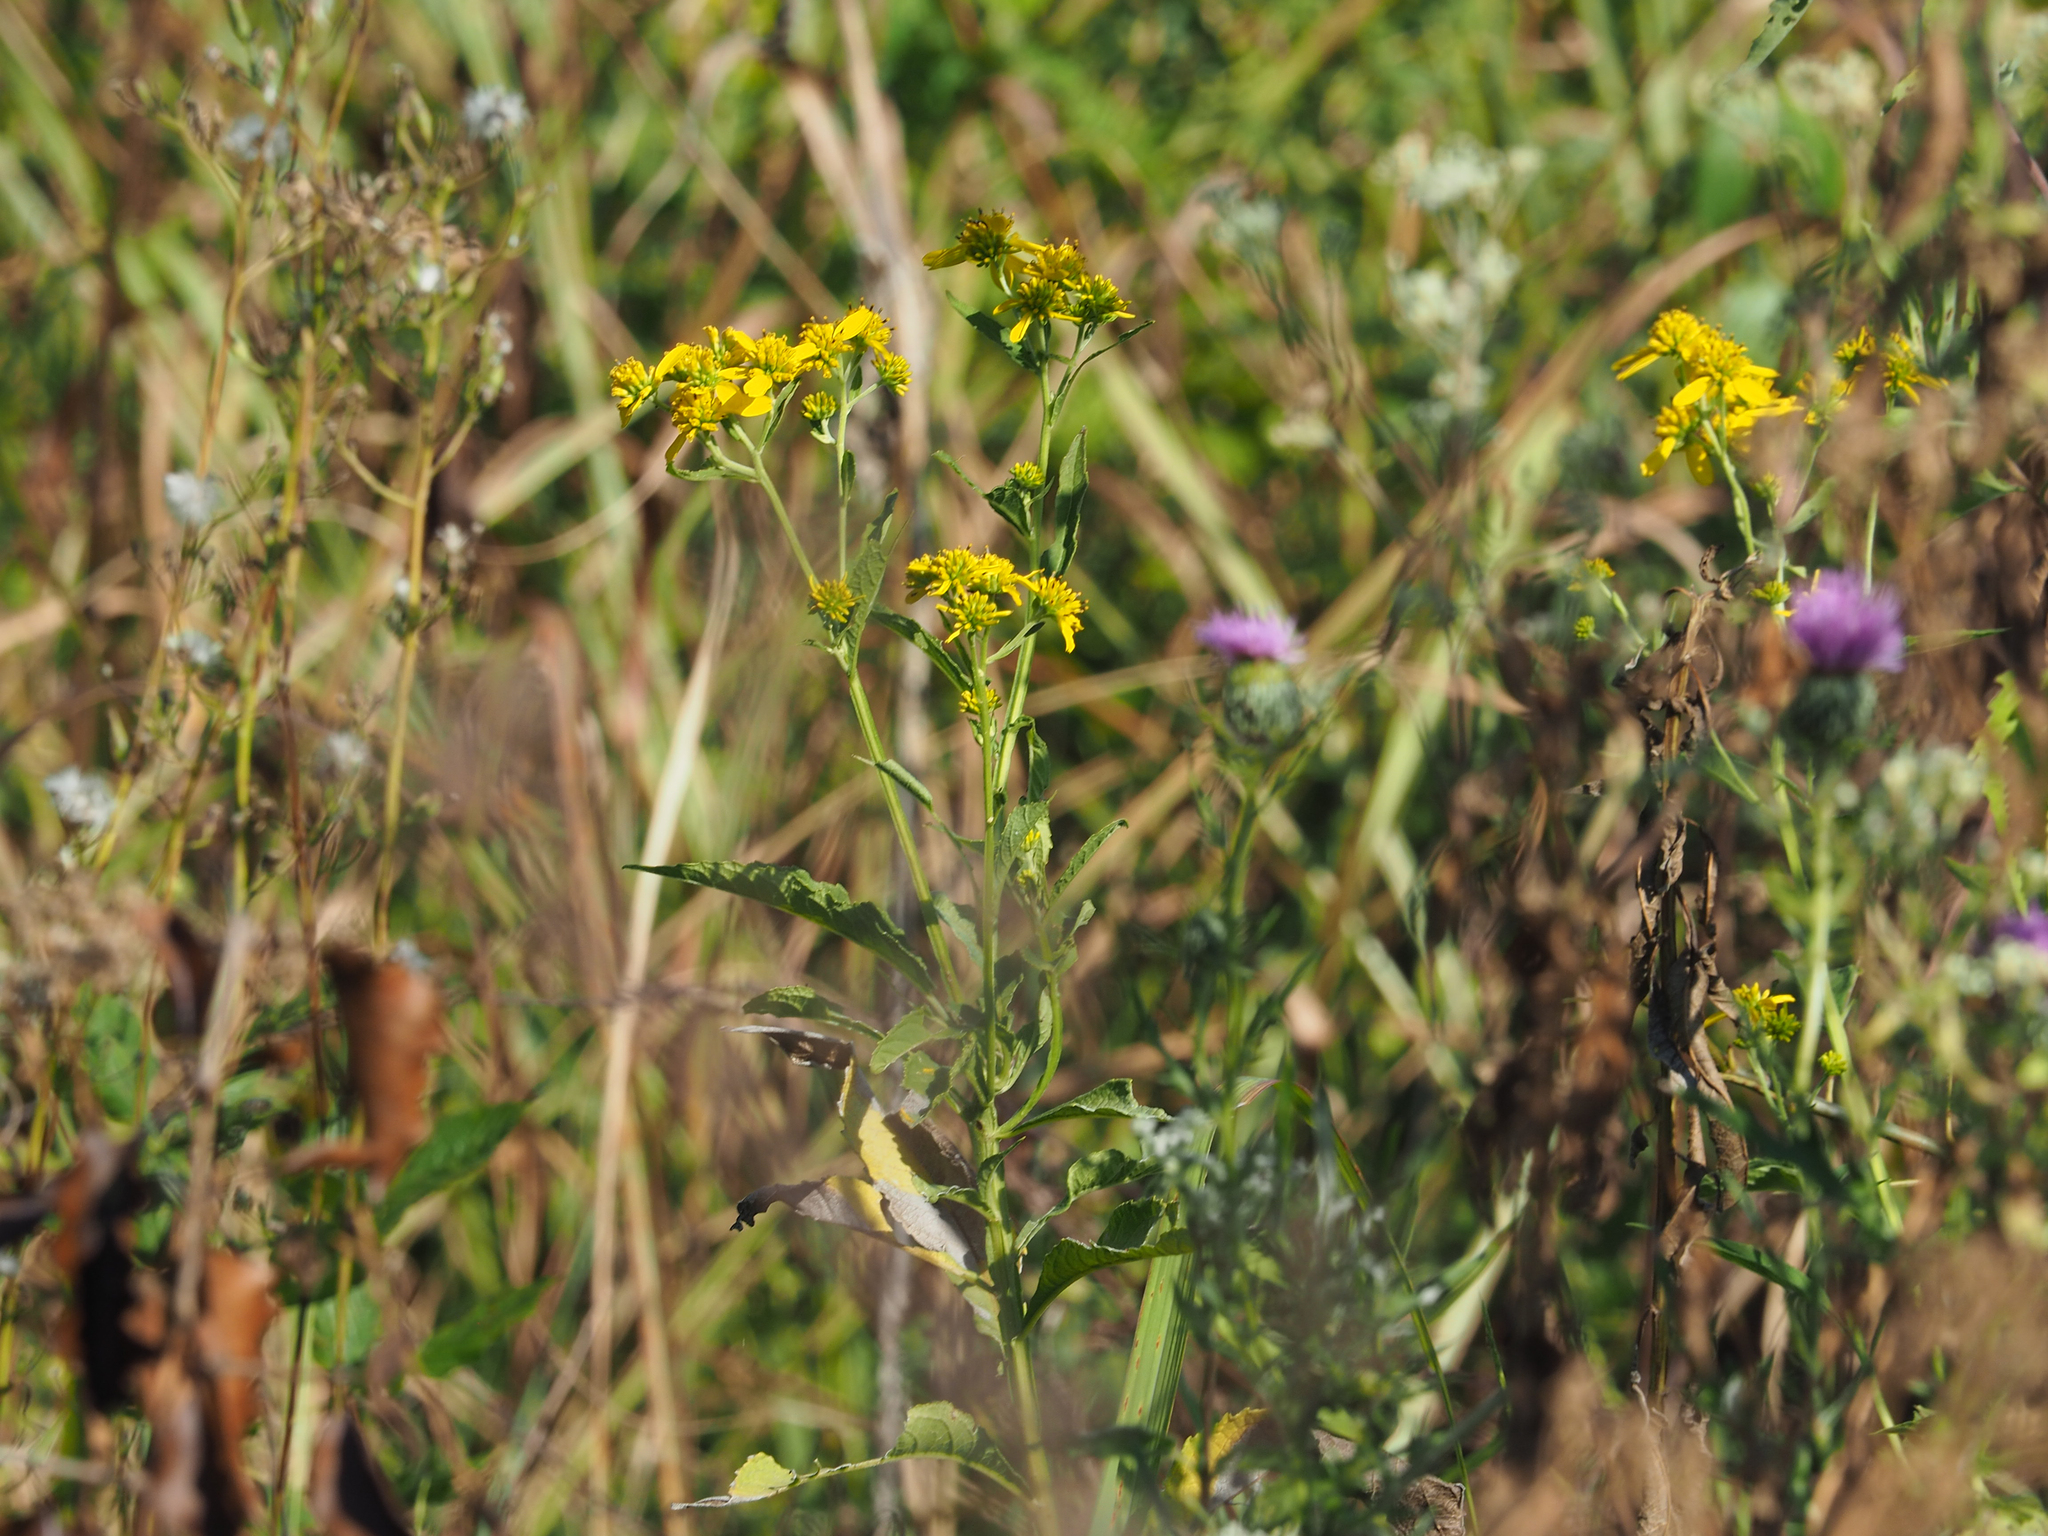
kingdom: Plantae
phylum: Tracheophyta
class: Magnoliopsida
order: Asterales
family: Asteraceae
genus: Verbesina
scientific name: Verbesina alternifolia
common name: Wingstem
